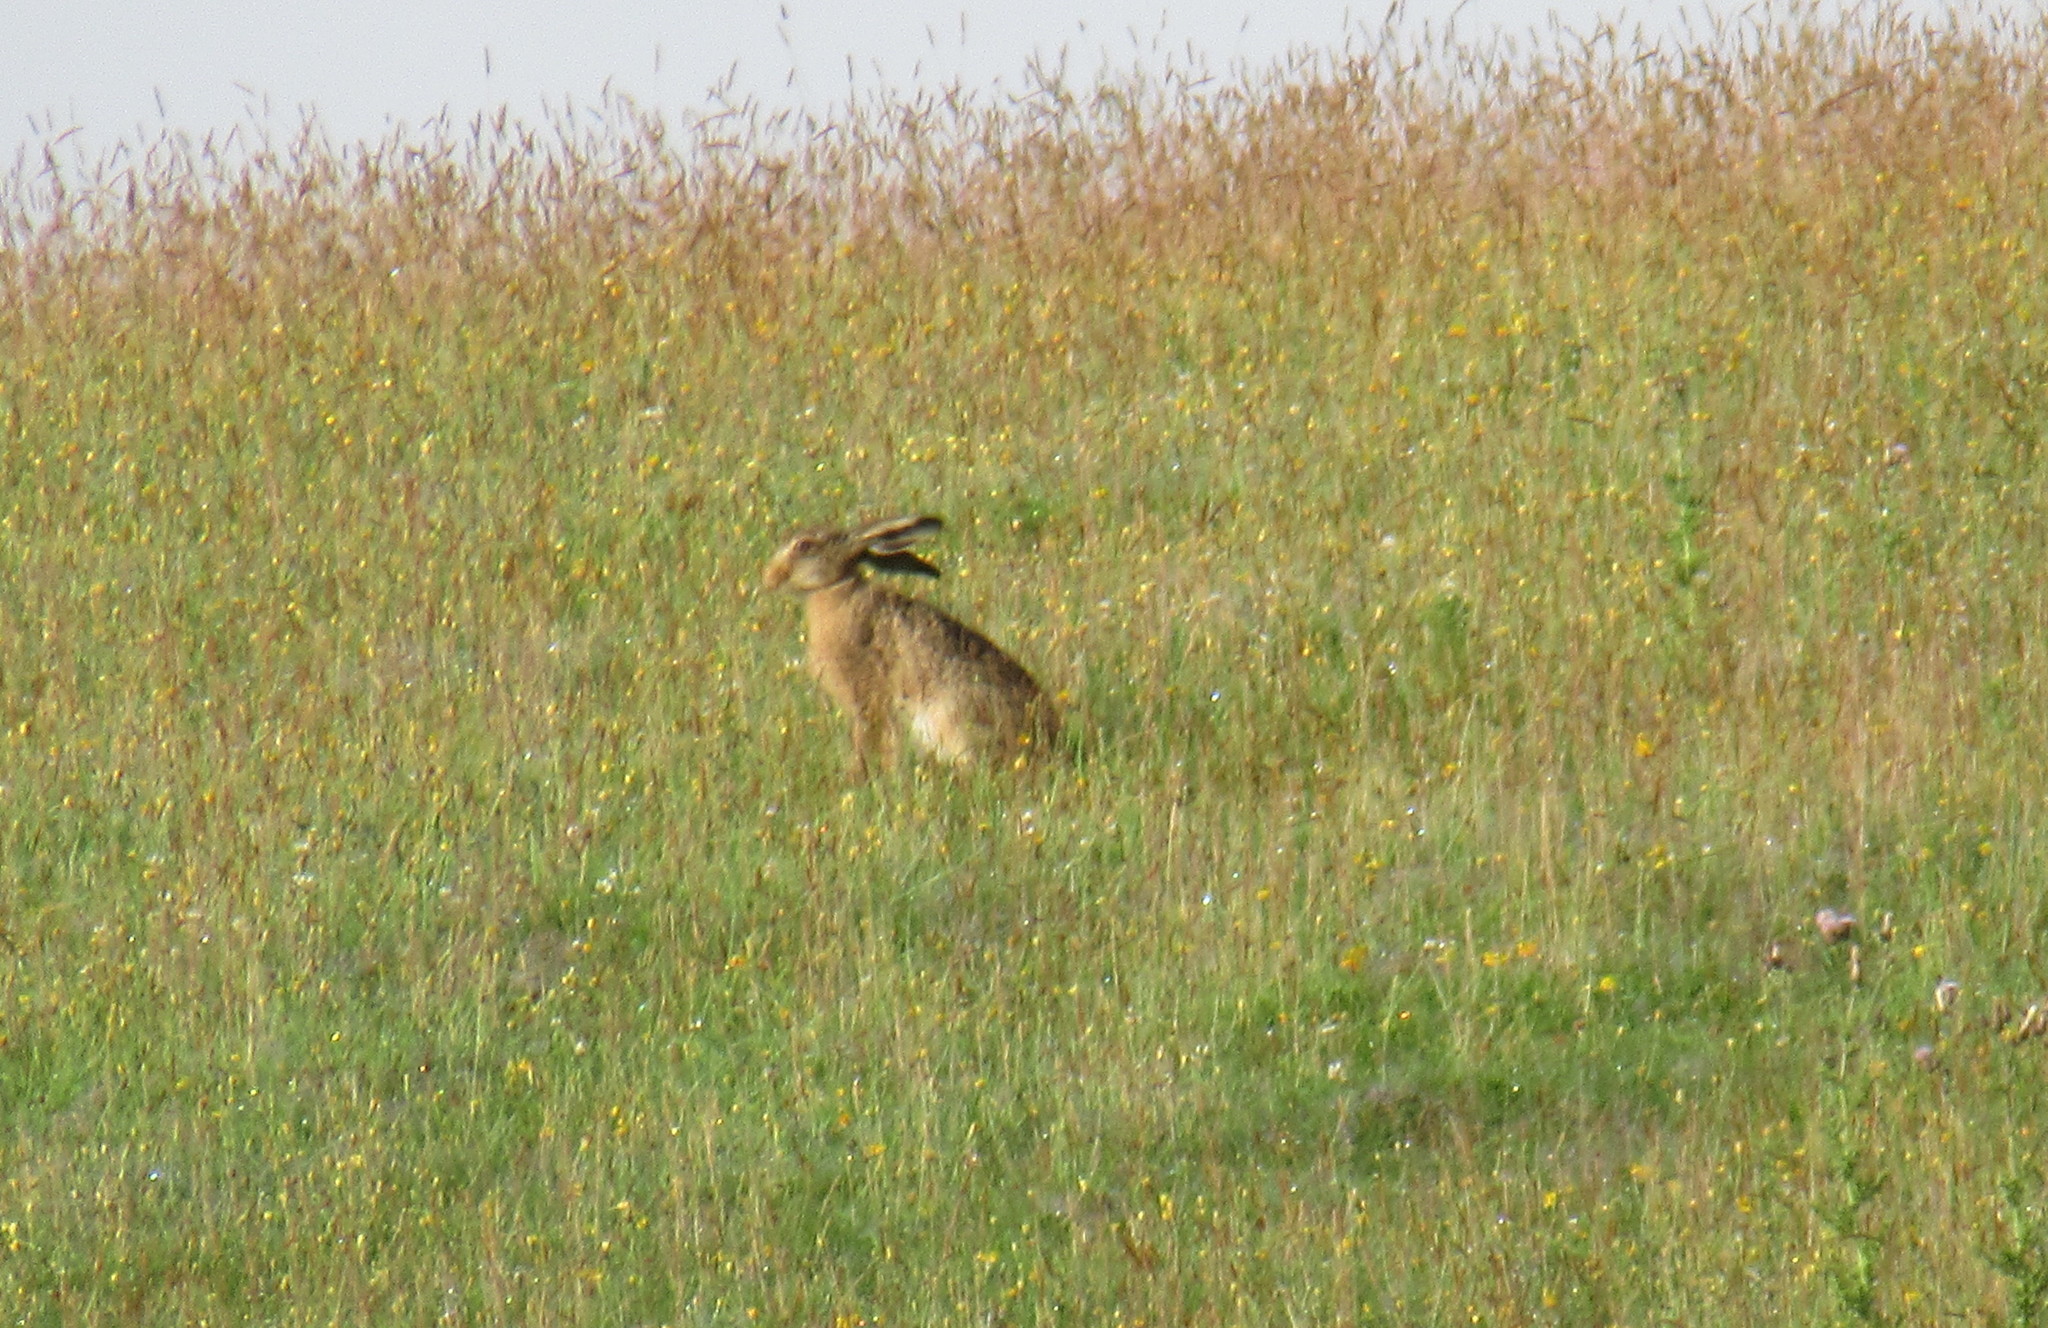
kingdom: Animalia
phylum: Chordata
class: Mammalia
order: Lagomorpha
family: Leporidae
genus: Lepus
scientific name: Lepus europaeus
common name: European hare
